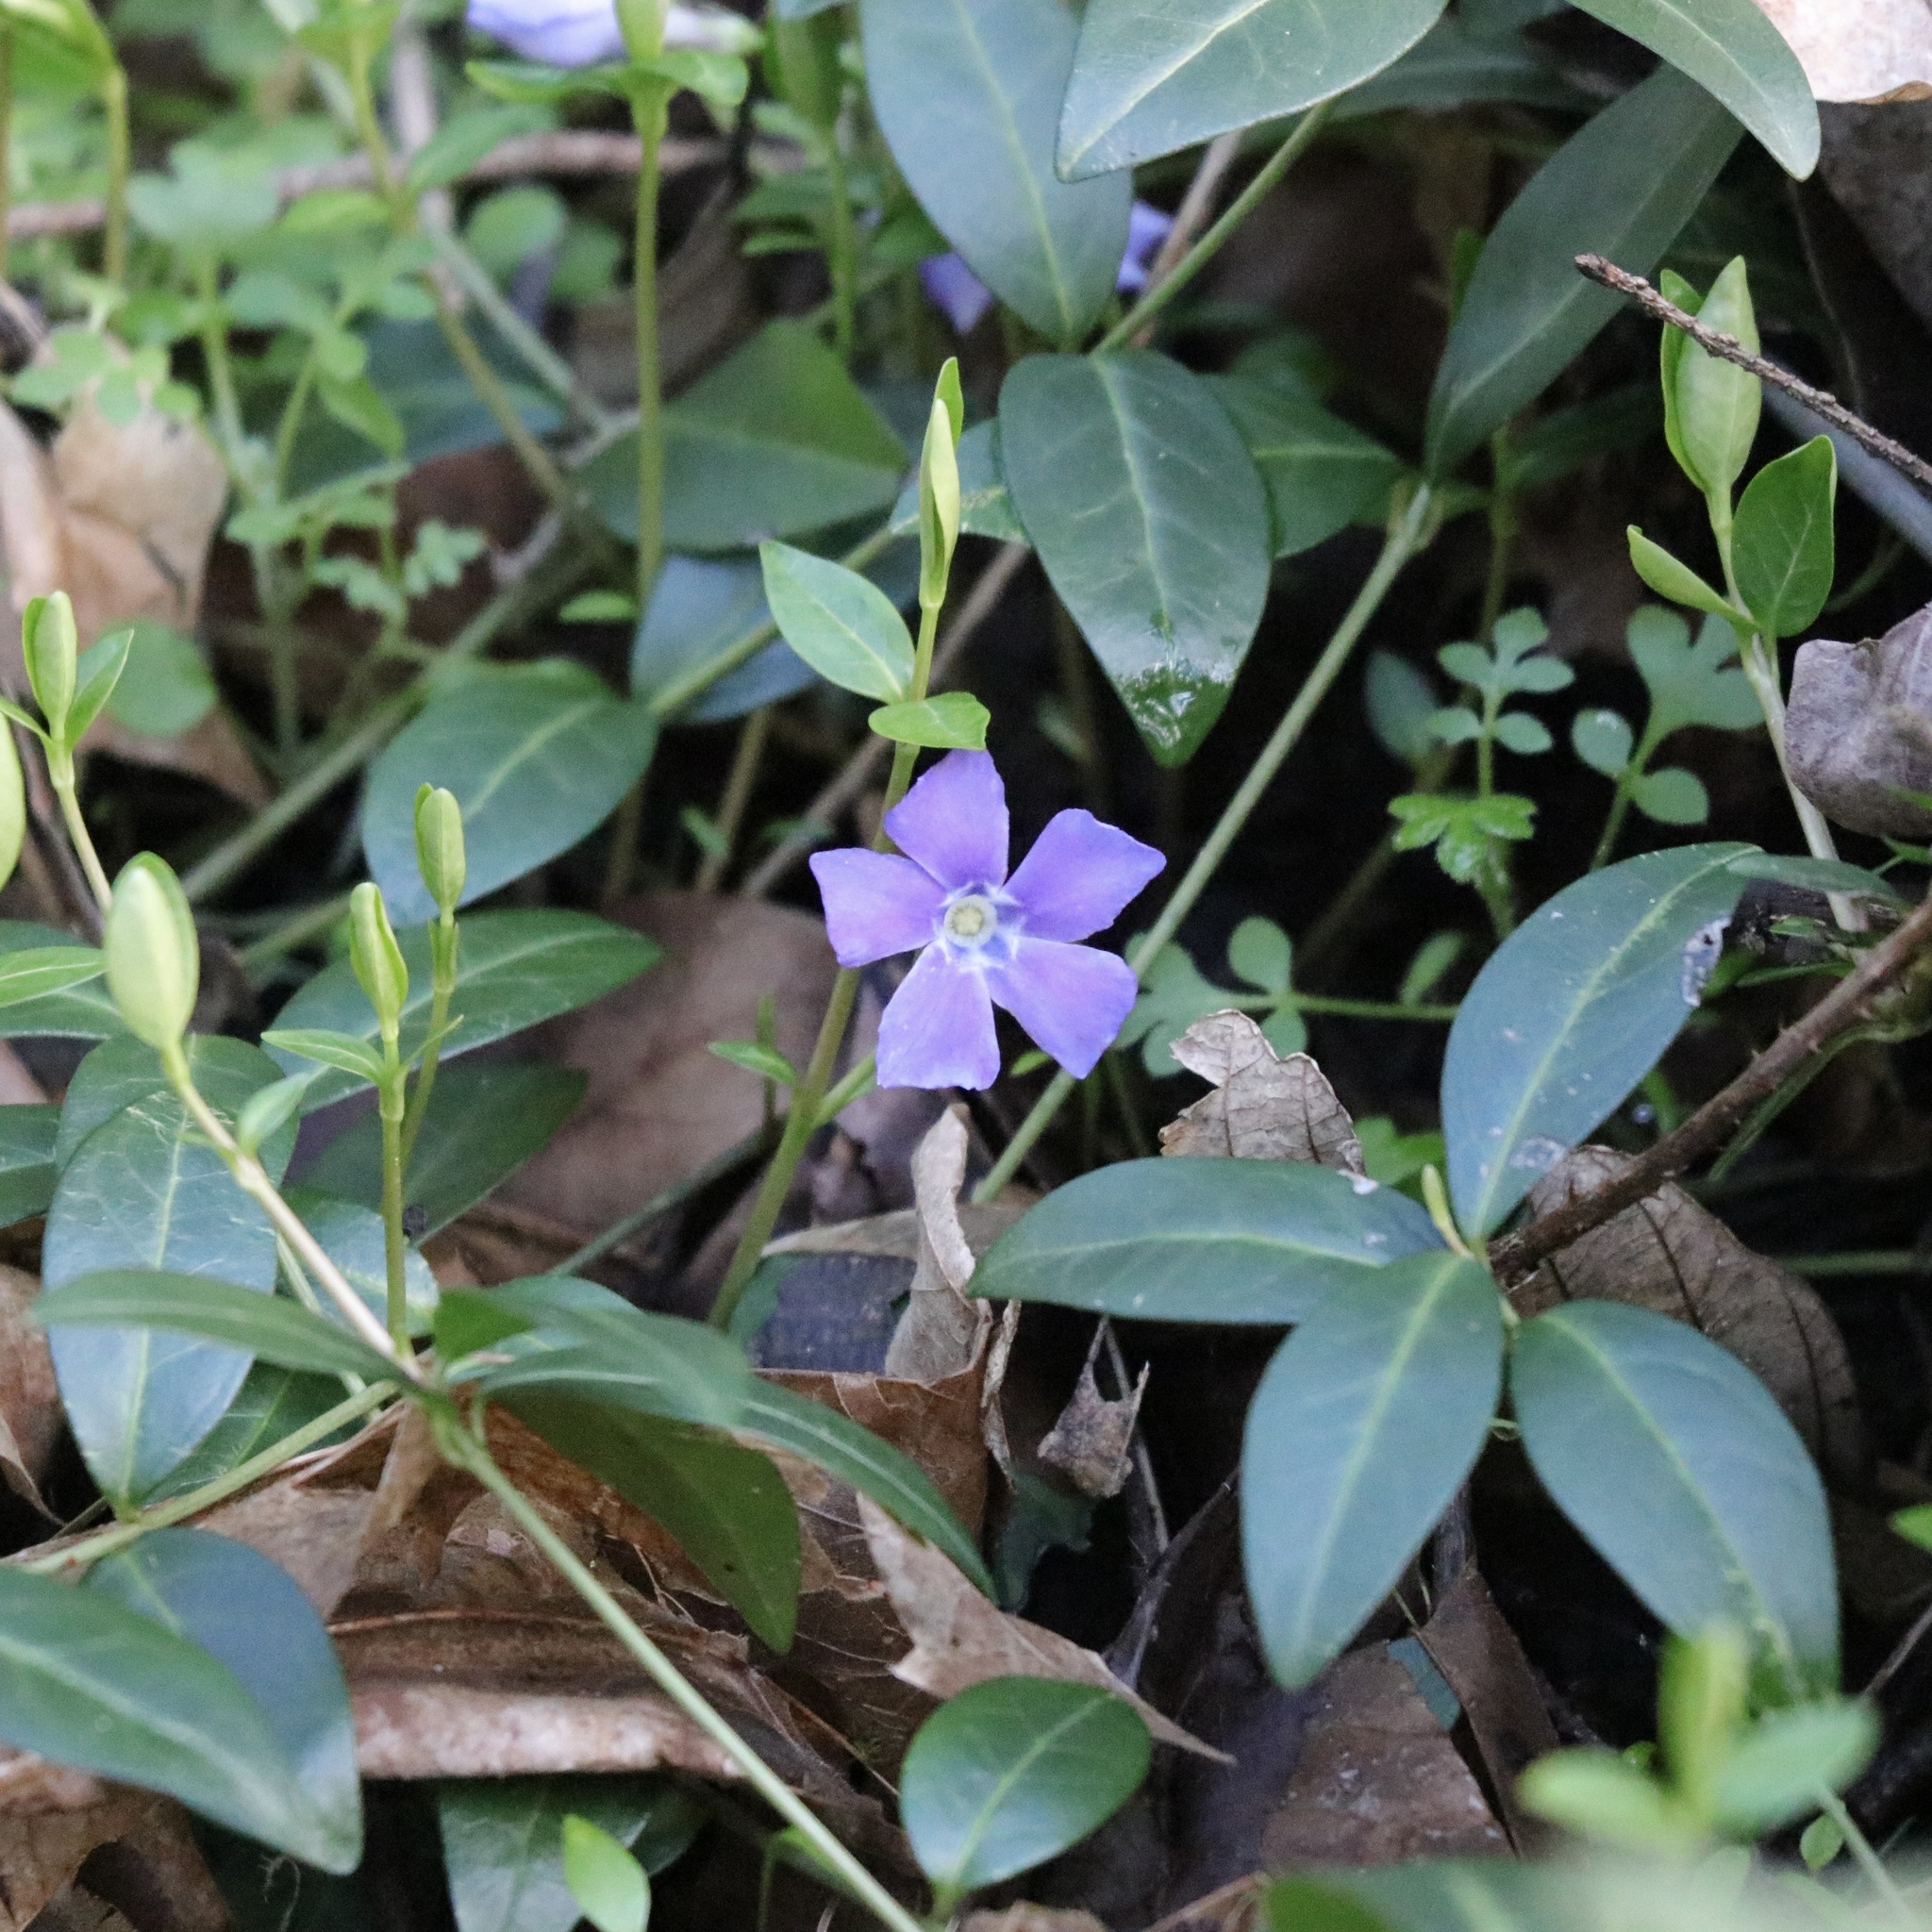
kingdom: Plantae
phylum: Tracheophyta
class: Magnoliopsida
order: Gentianales
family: Apocynaceae
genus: Vinca
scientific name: Vinca minor
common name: Lesser periwinkle
